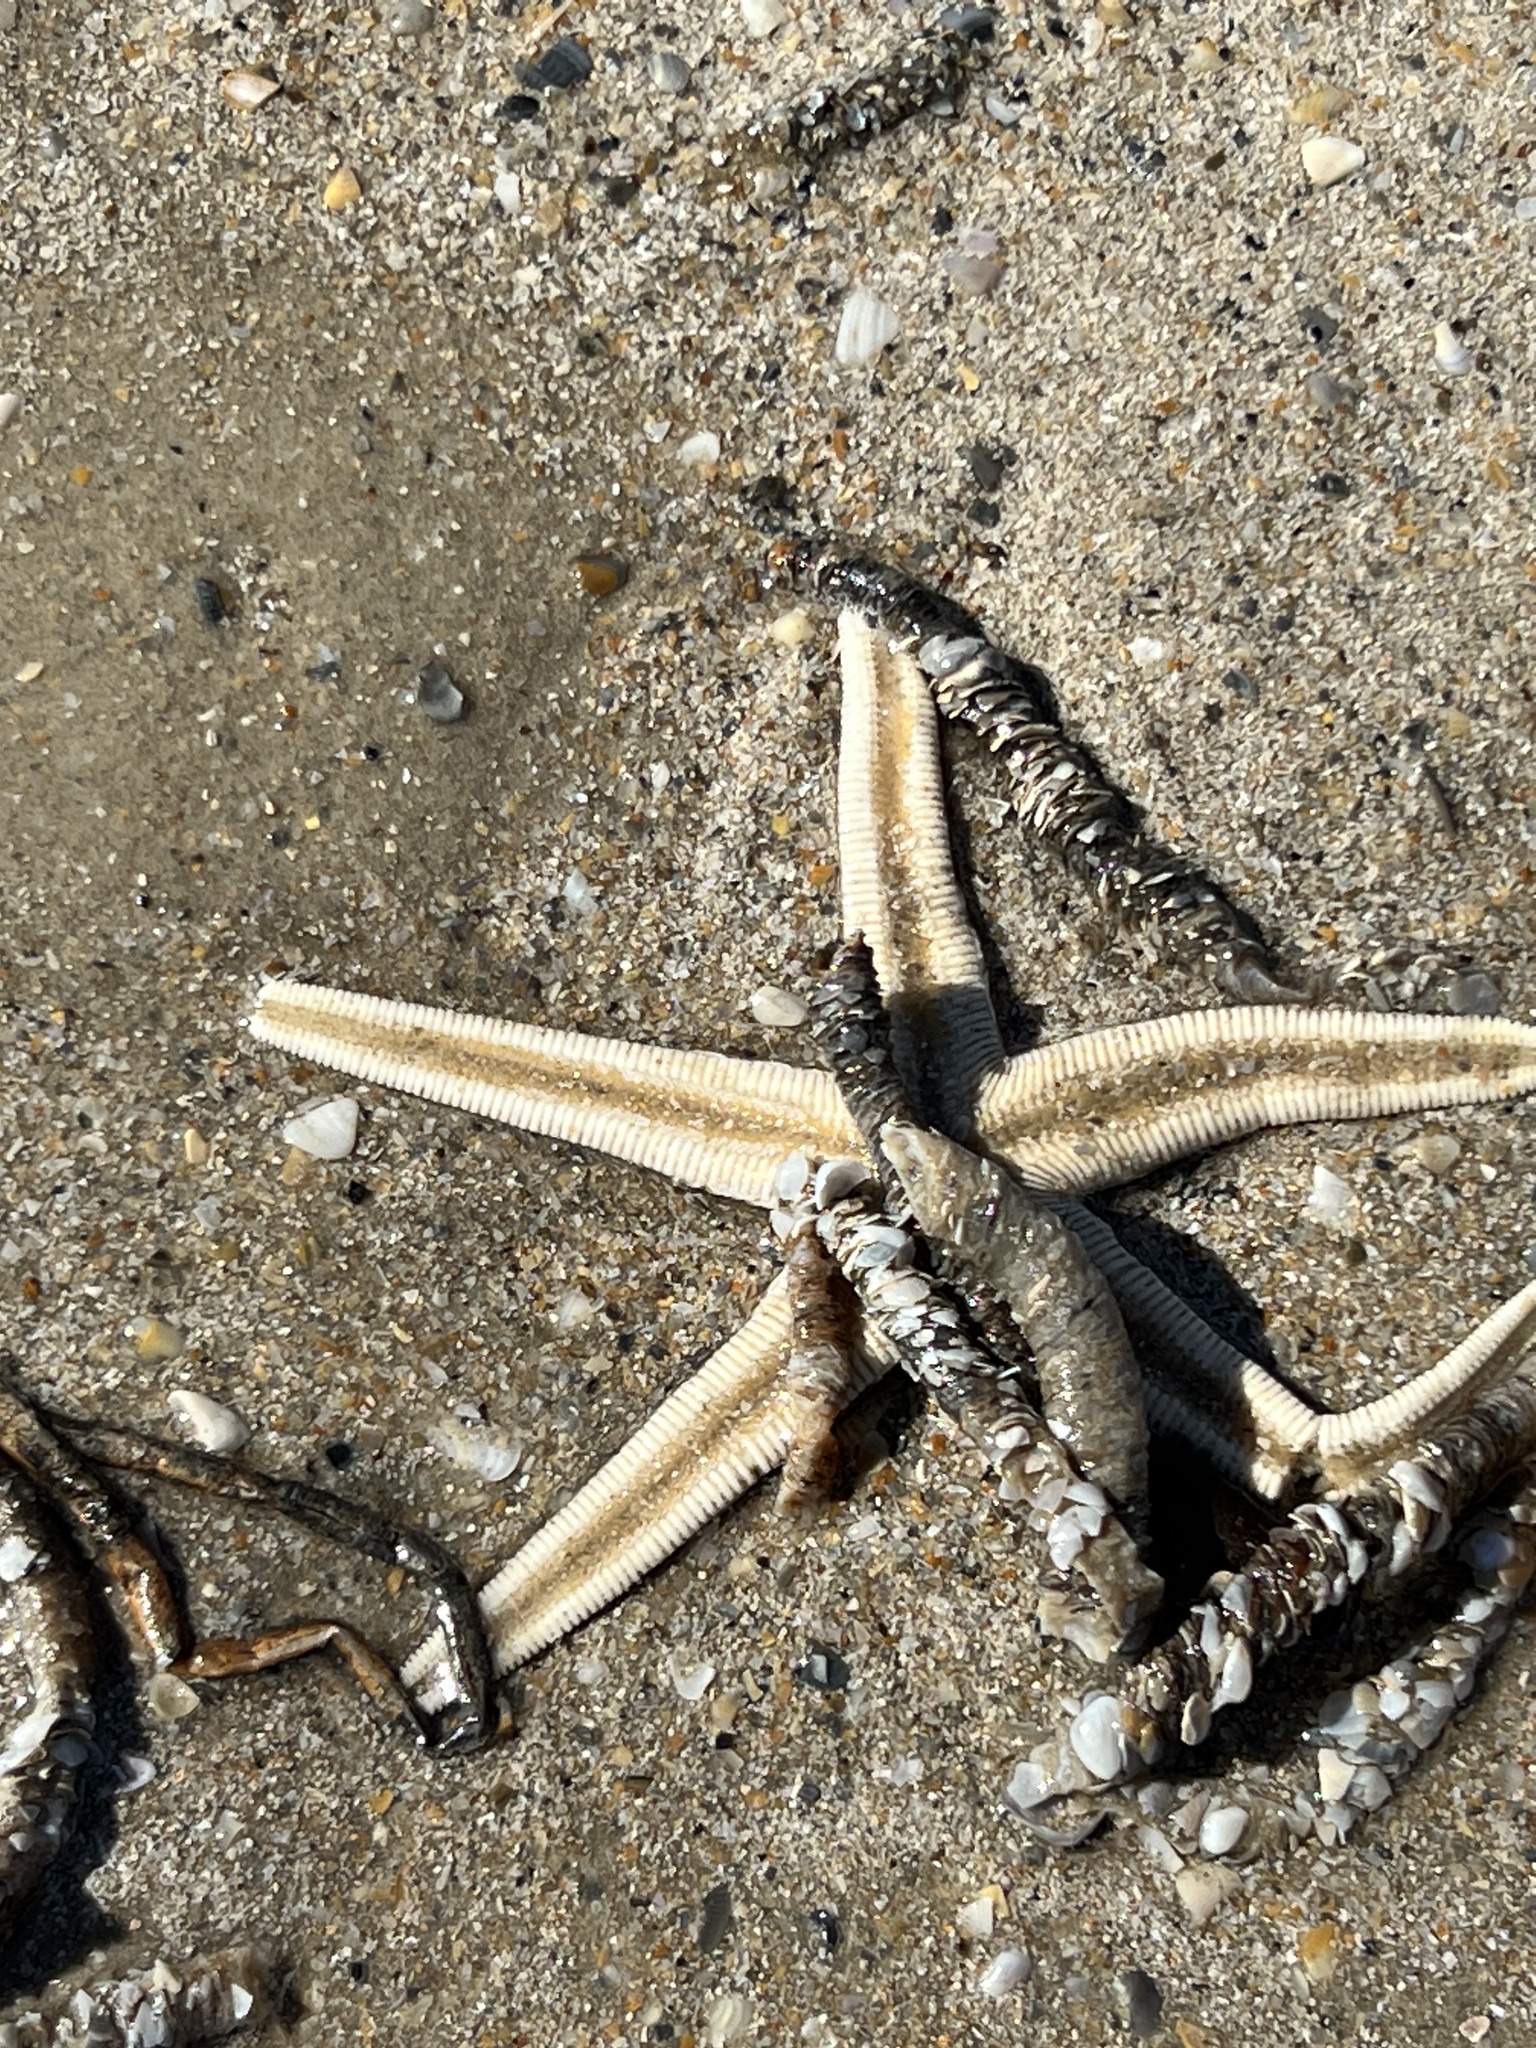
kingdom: Animalia
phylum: Echinodermata
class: Asteroidea
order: Paxillosida
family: Luidiidae
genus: Luidia
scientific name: Luidia clathrata
